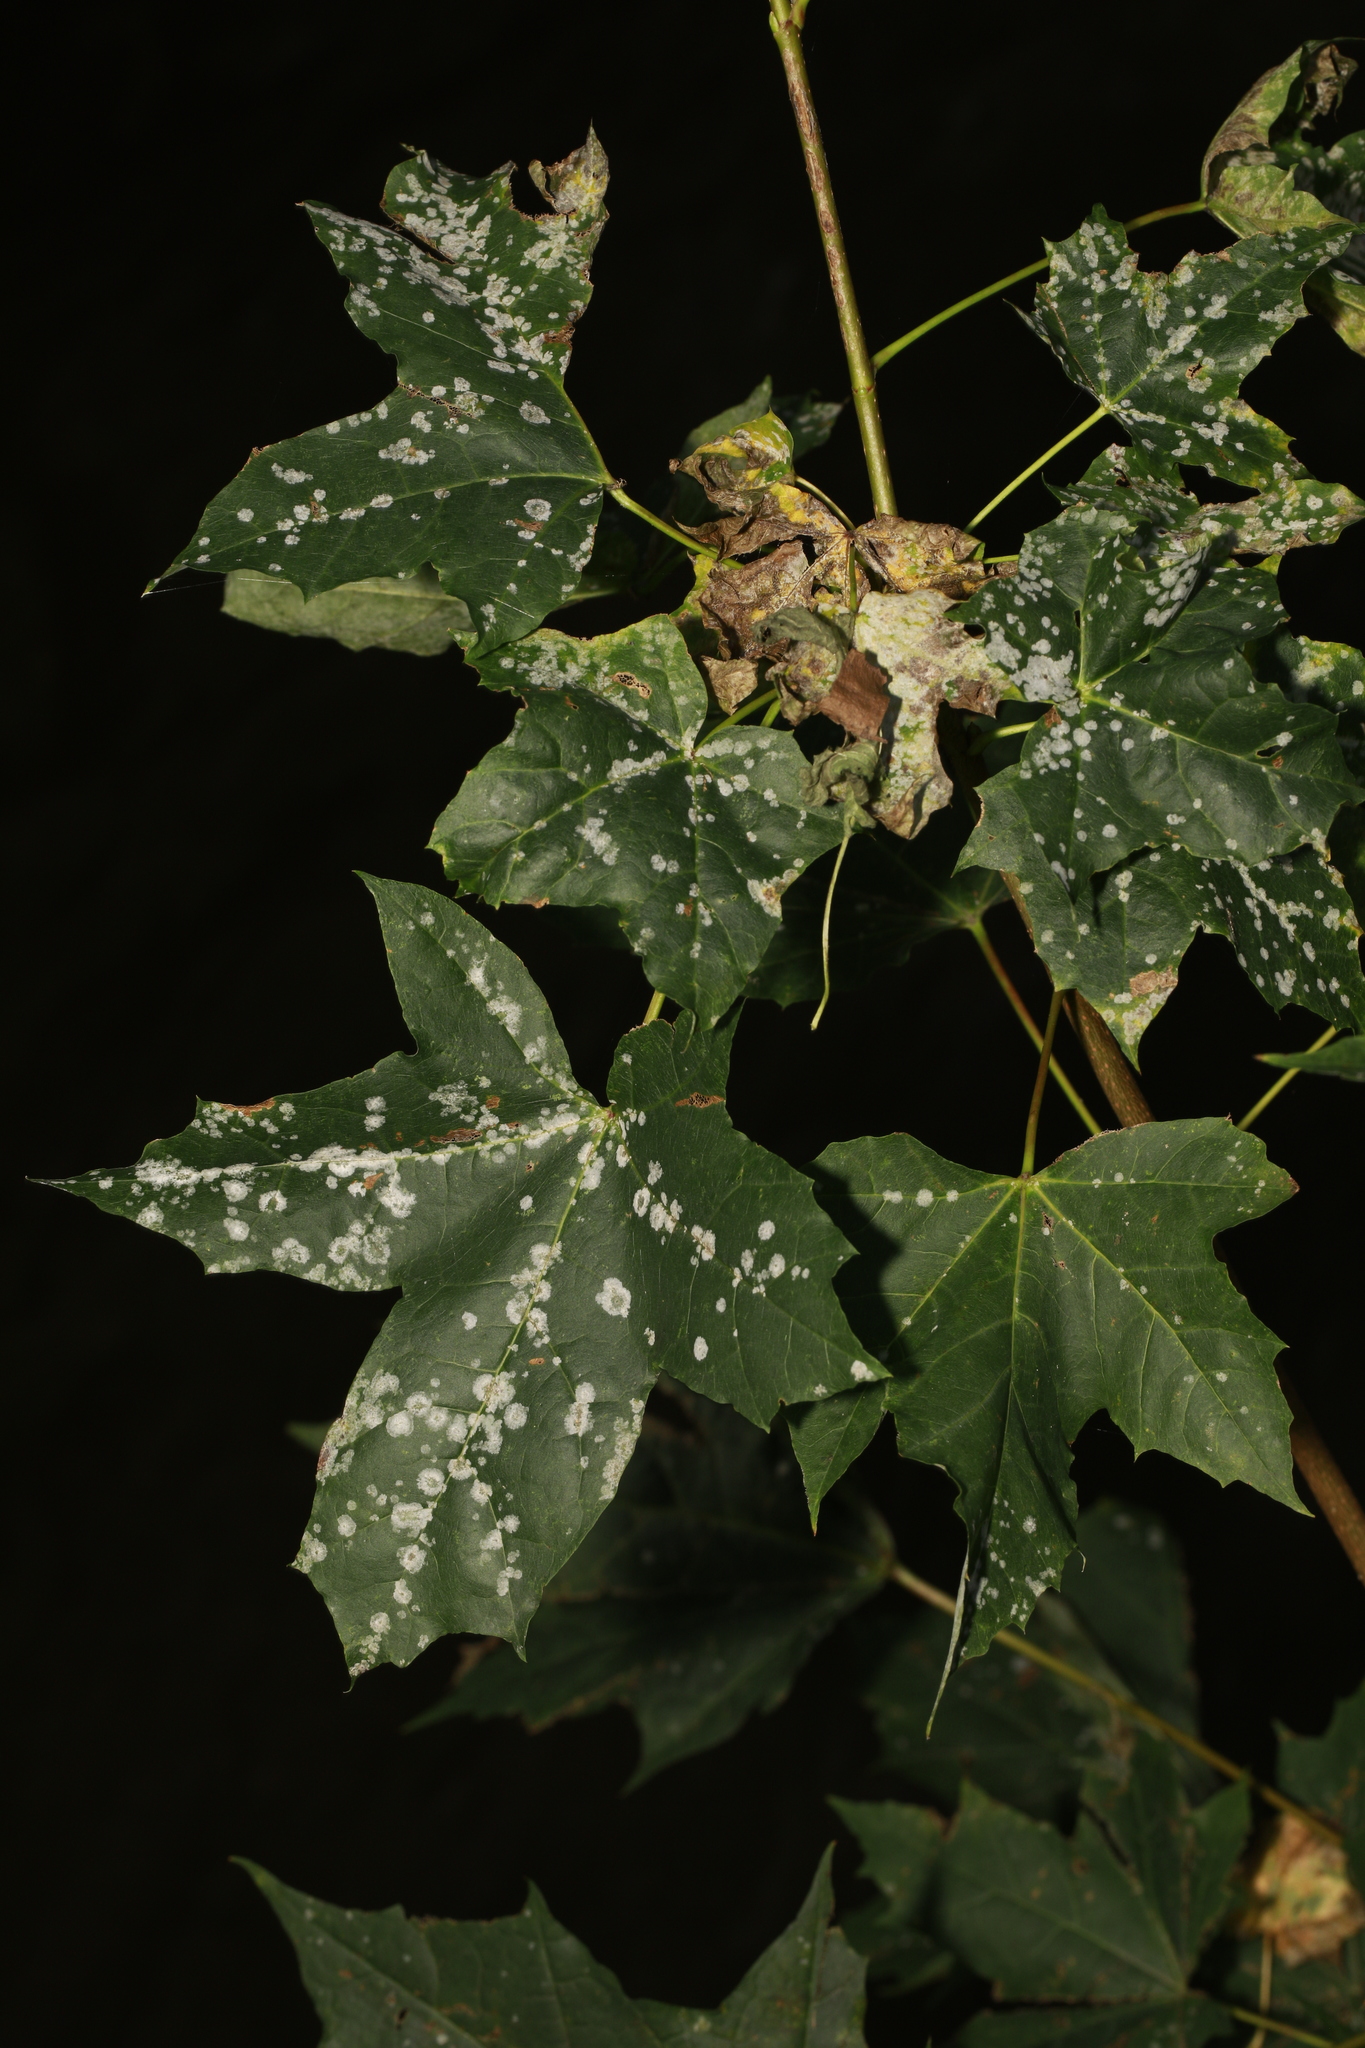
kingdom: Fungi
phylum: Ascomycota
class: Leotiomycetes
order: Helotiales
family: Erysiphaceae
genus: Sawadaea
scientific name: Sawadaea tulasnei
